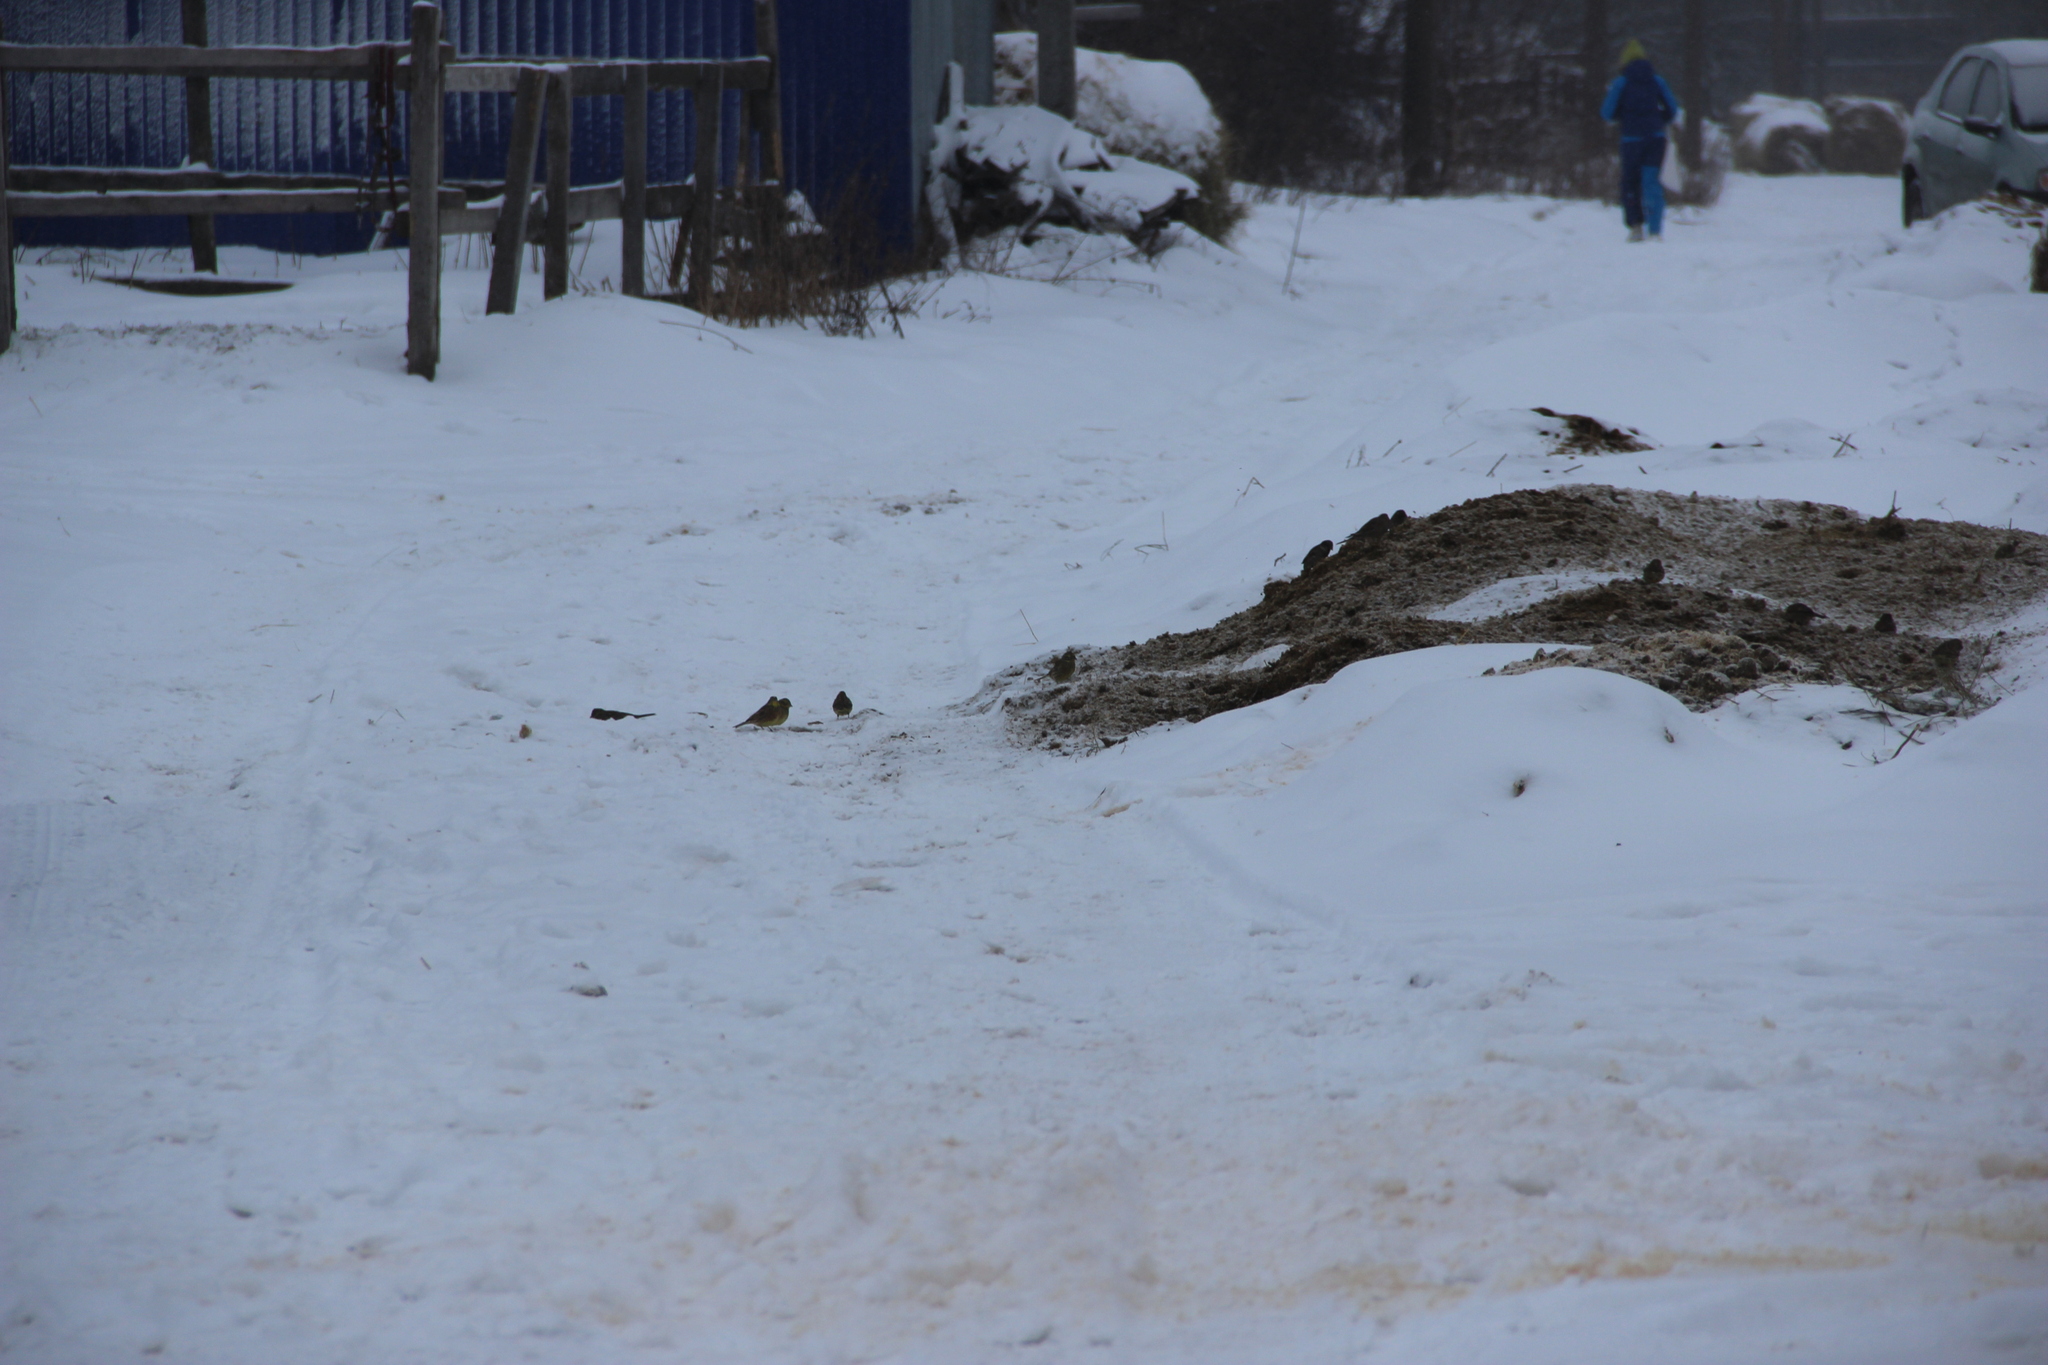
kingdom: Animalia
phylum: Chordata
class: Aves
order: Passeriformes
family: Emberizidae
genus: Emberiza
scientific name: Emberiza citrinella
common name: Yellowhammer
